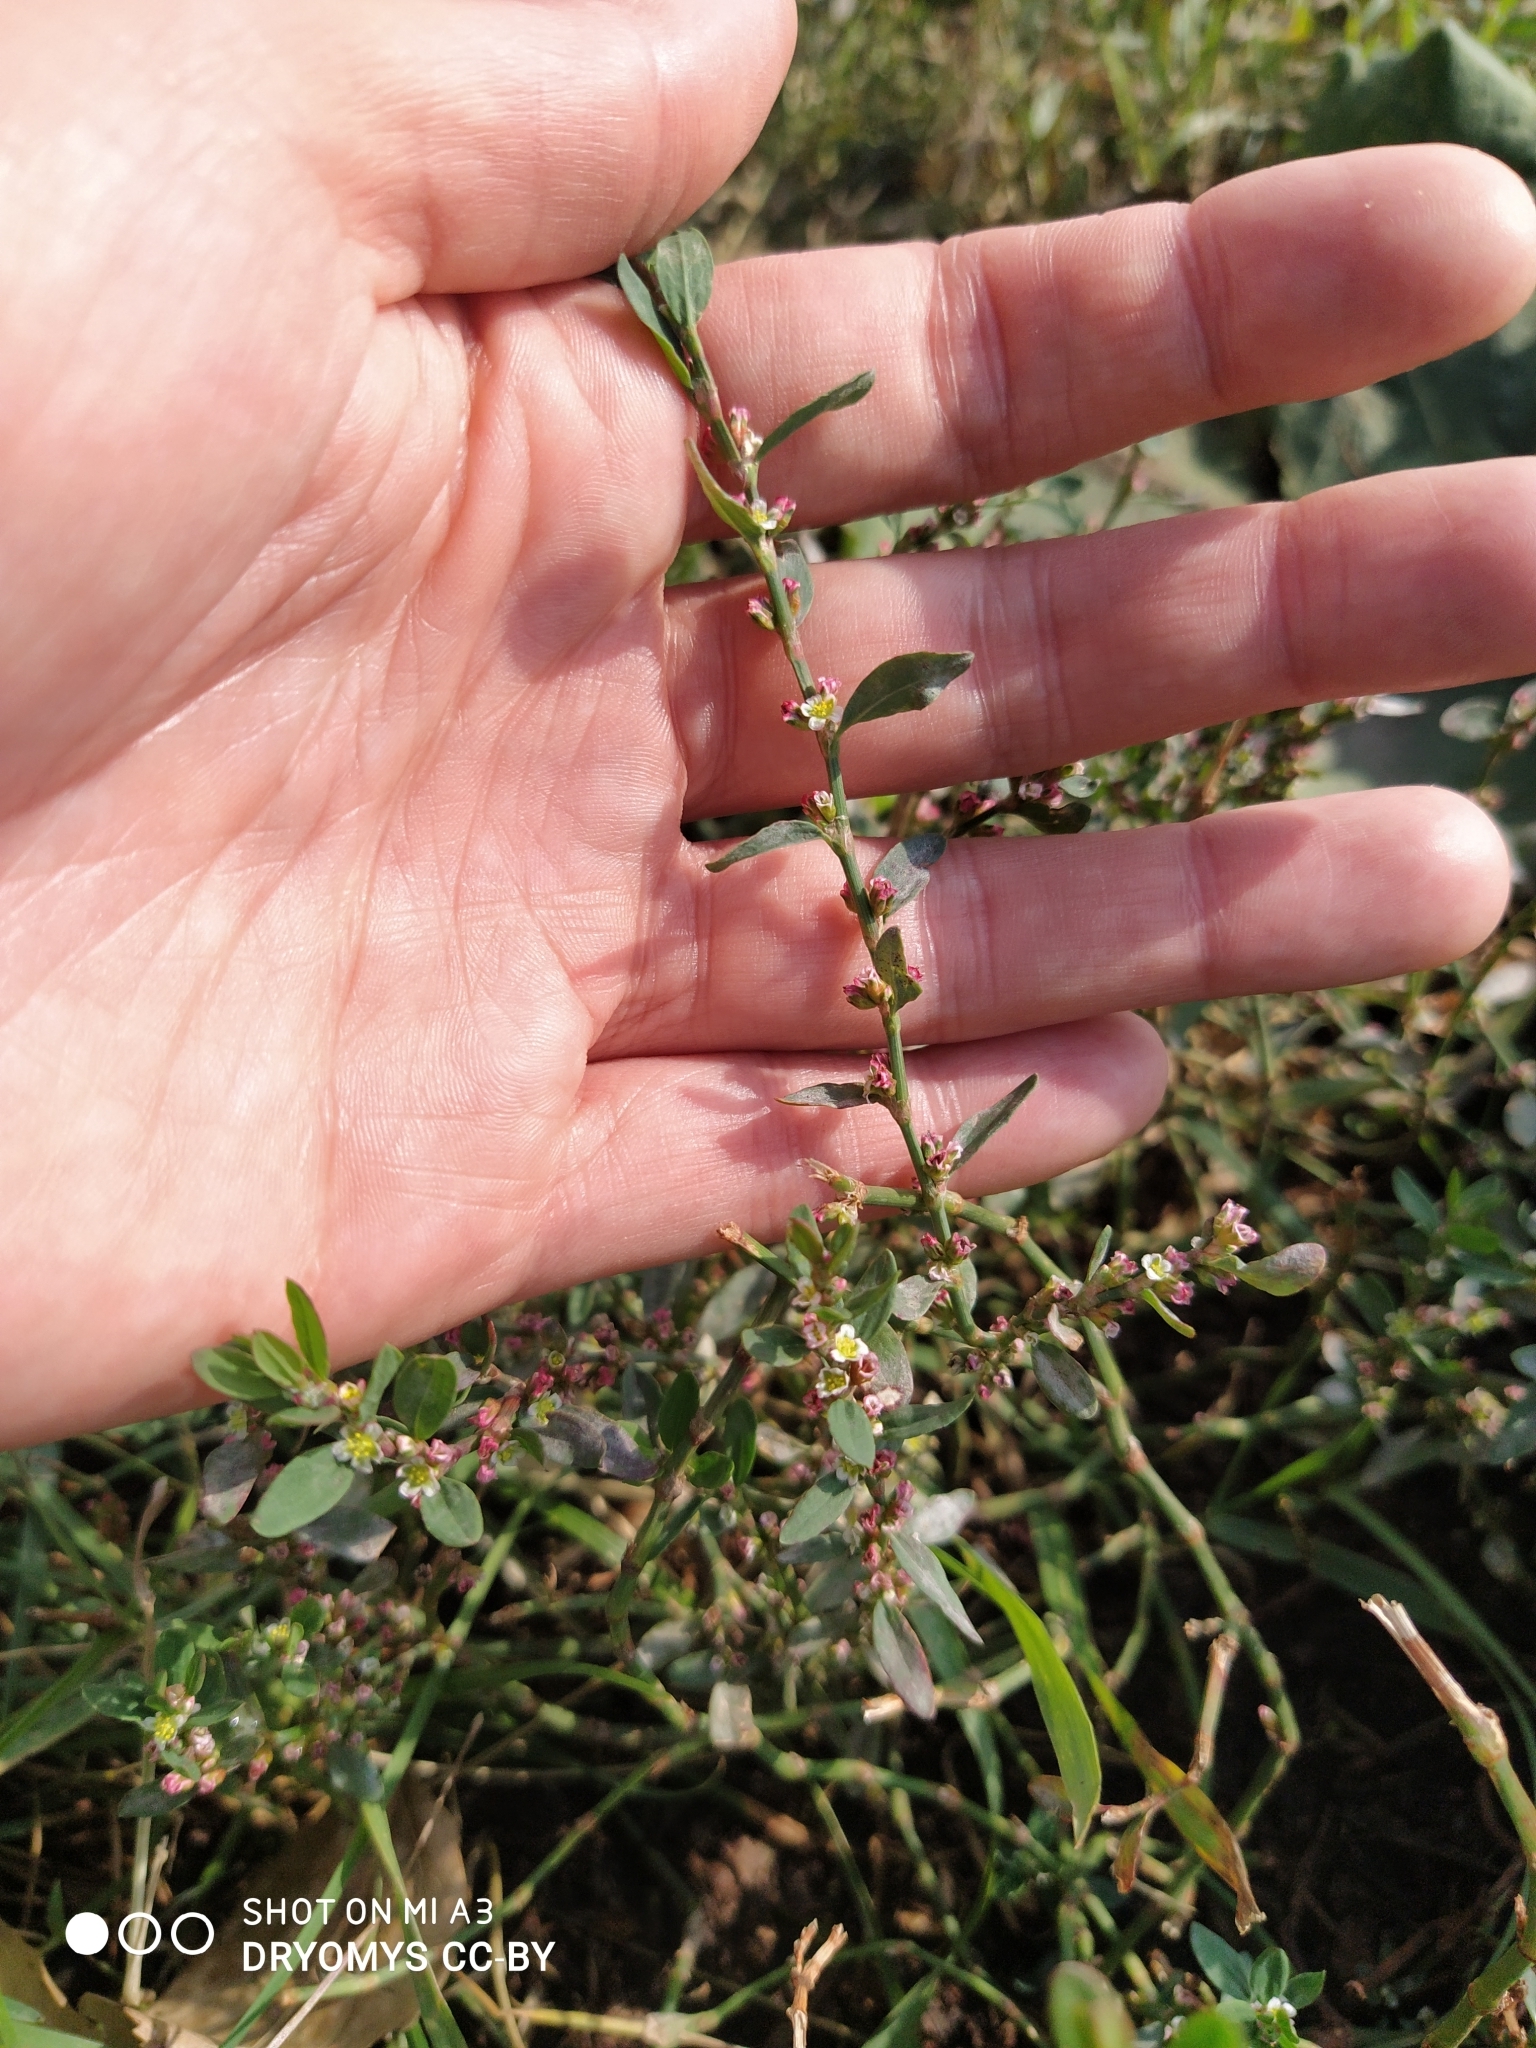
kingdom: Plantae
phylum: Tracheophyta
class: Magnoliopsida
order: Caryophyllales
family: Polygonaceae
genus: Polygonum
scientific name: Polygonum
